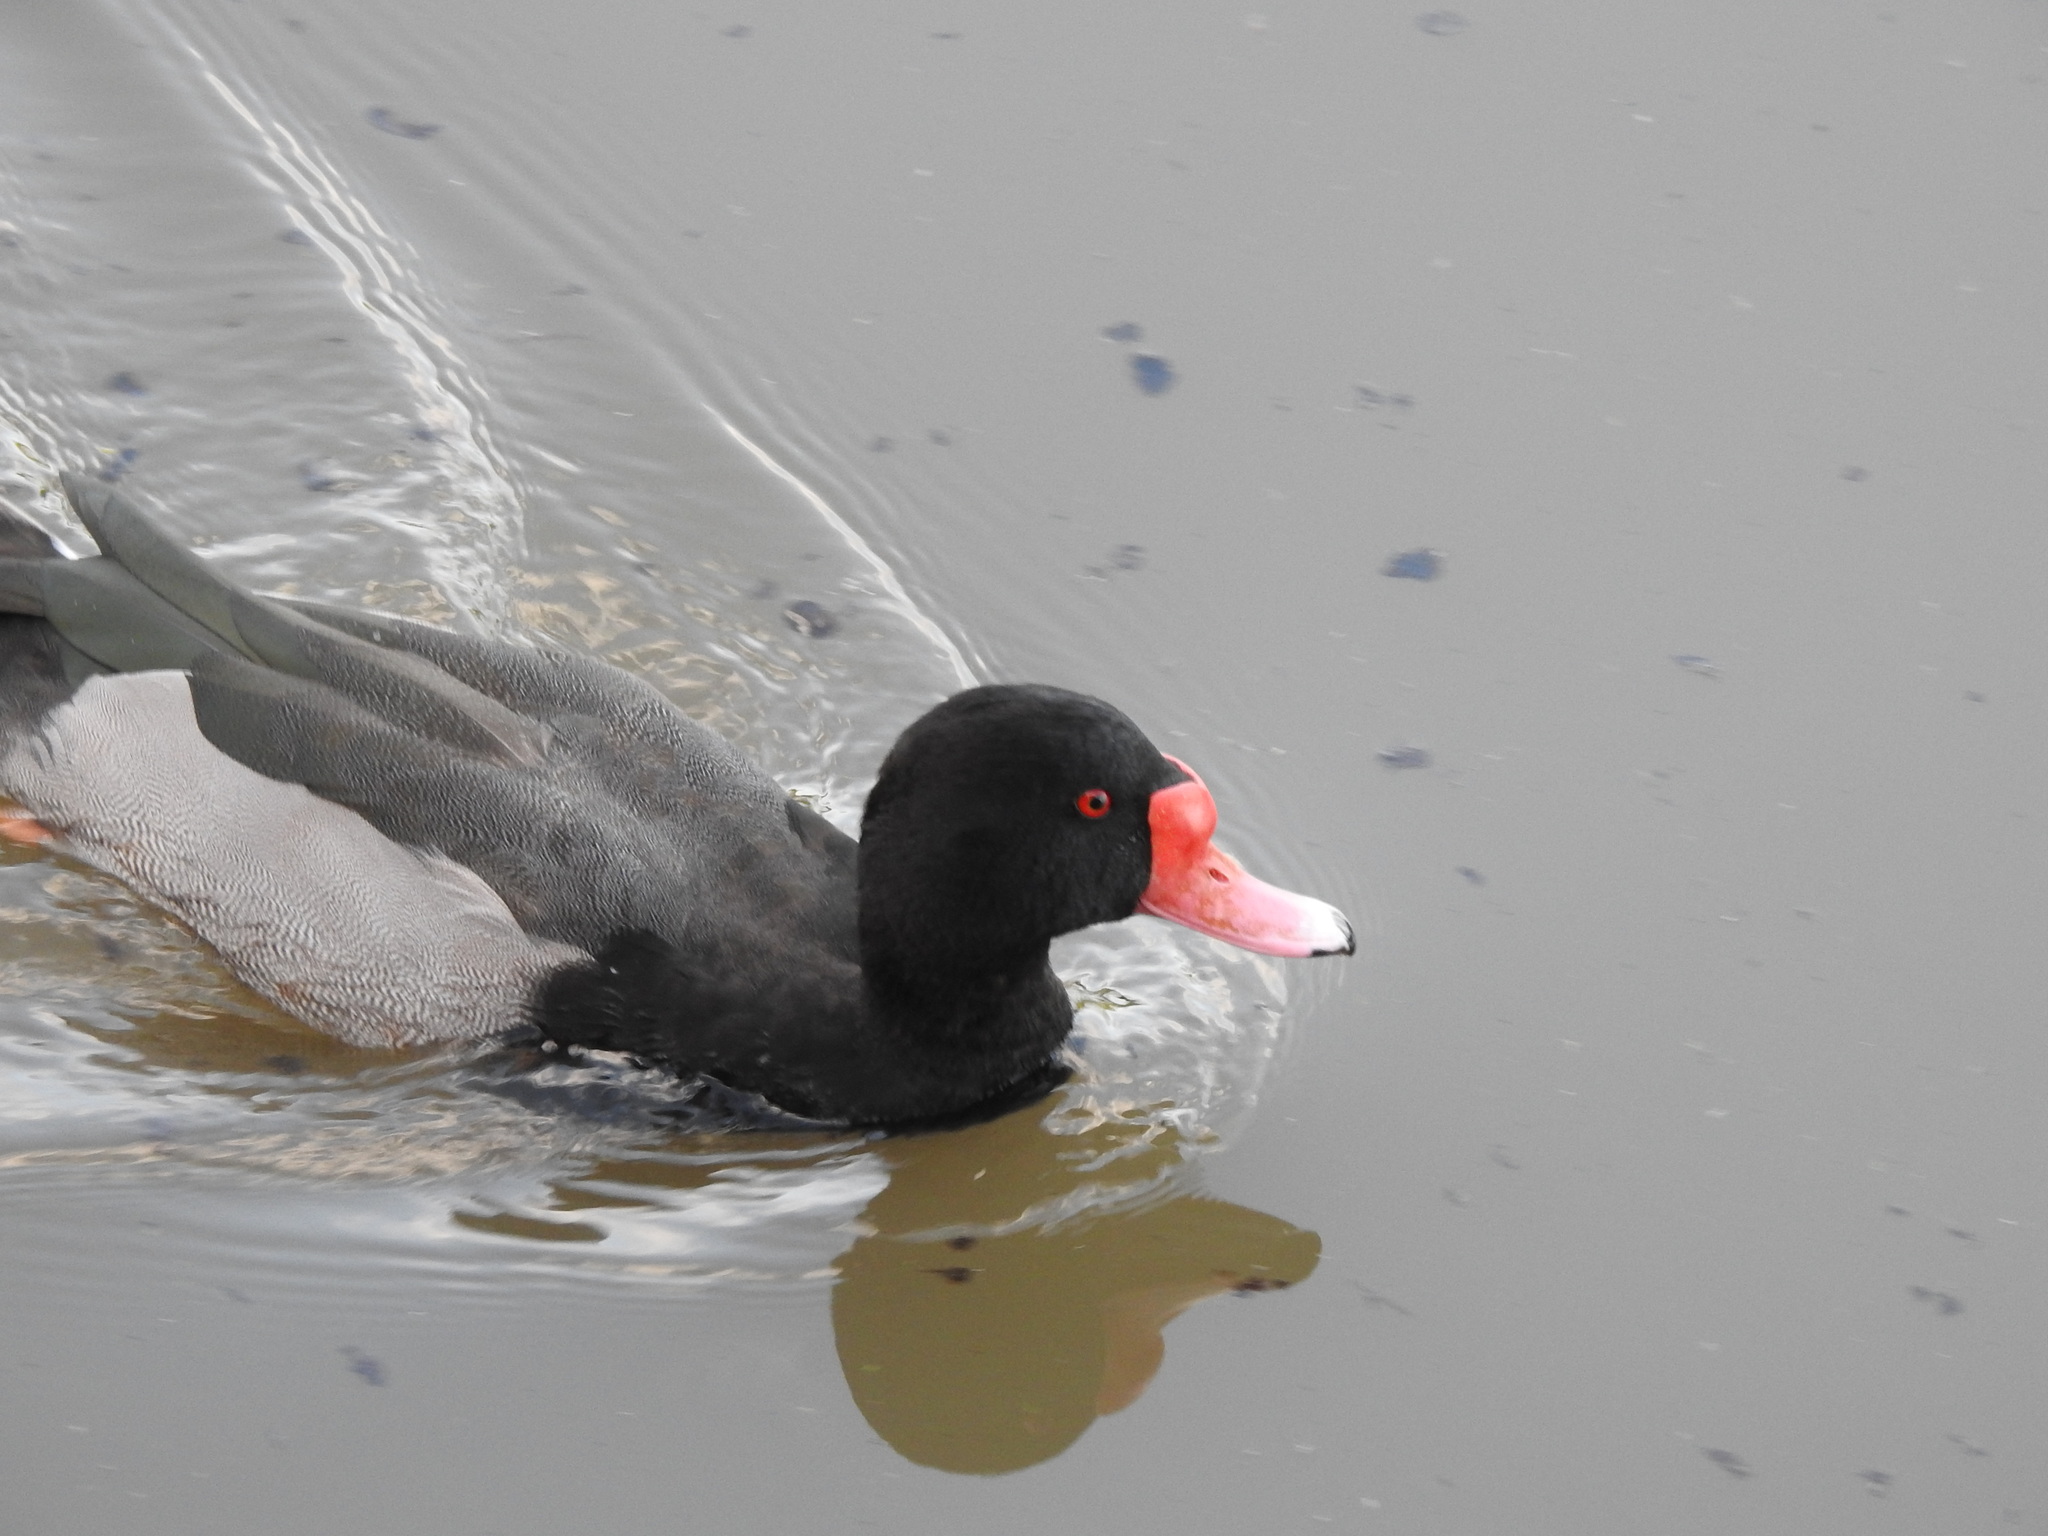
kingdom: Animalia
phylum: Chordata
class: Aves
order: Anseriformes
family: Anatidae
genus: Netta
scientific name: Netta peposaca
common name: Rosy-billed pochard
